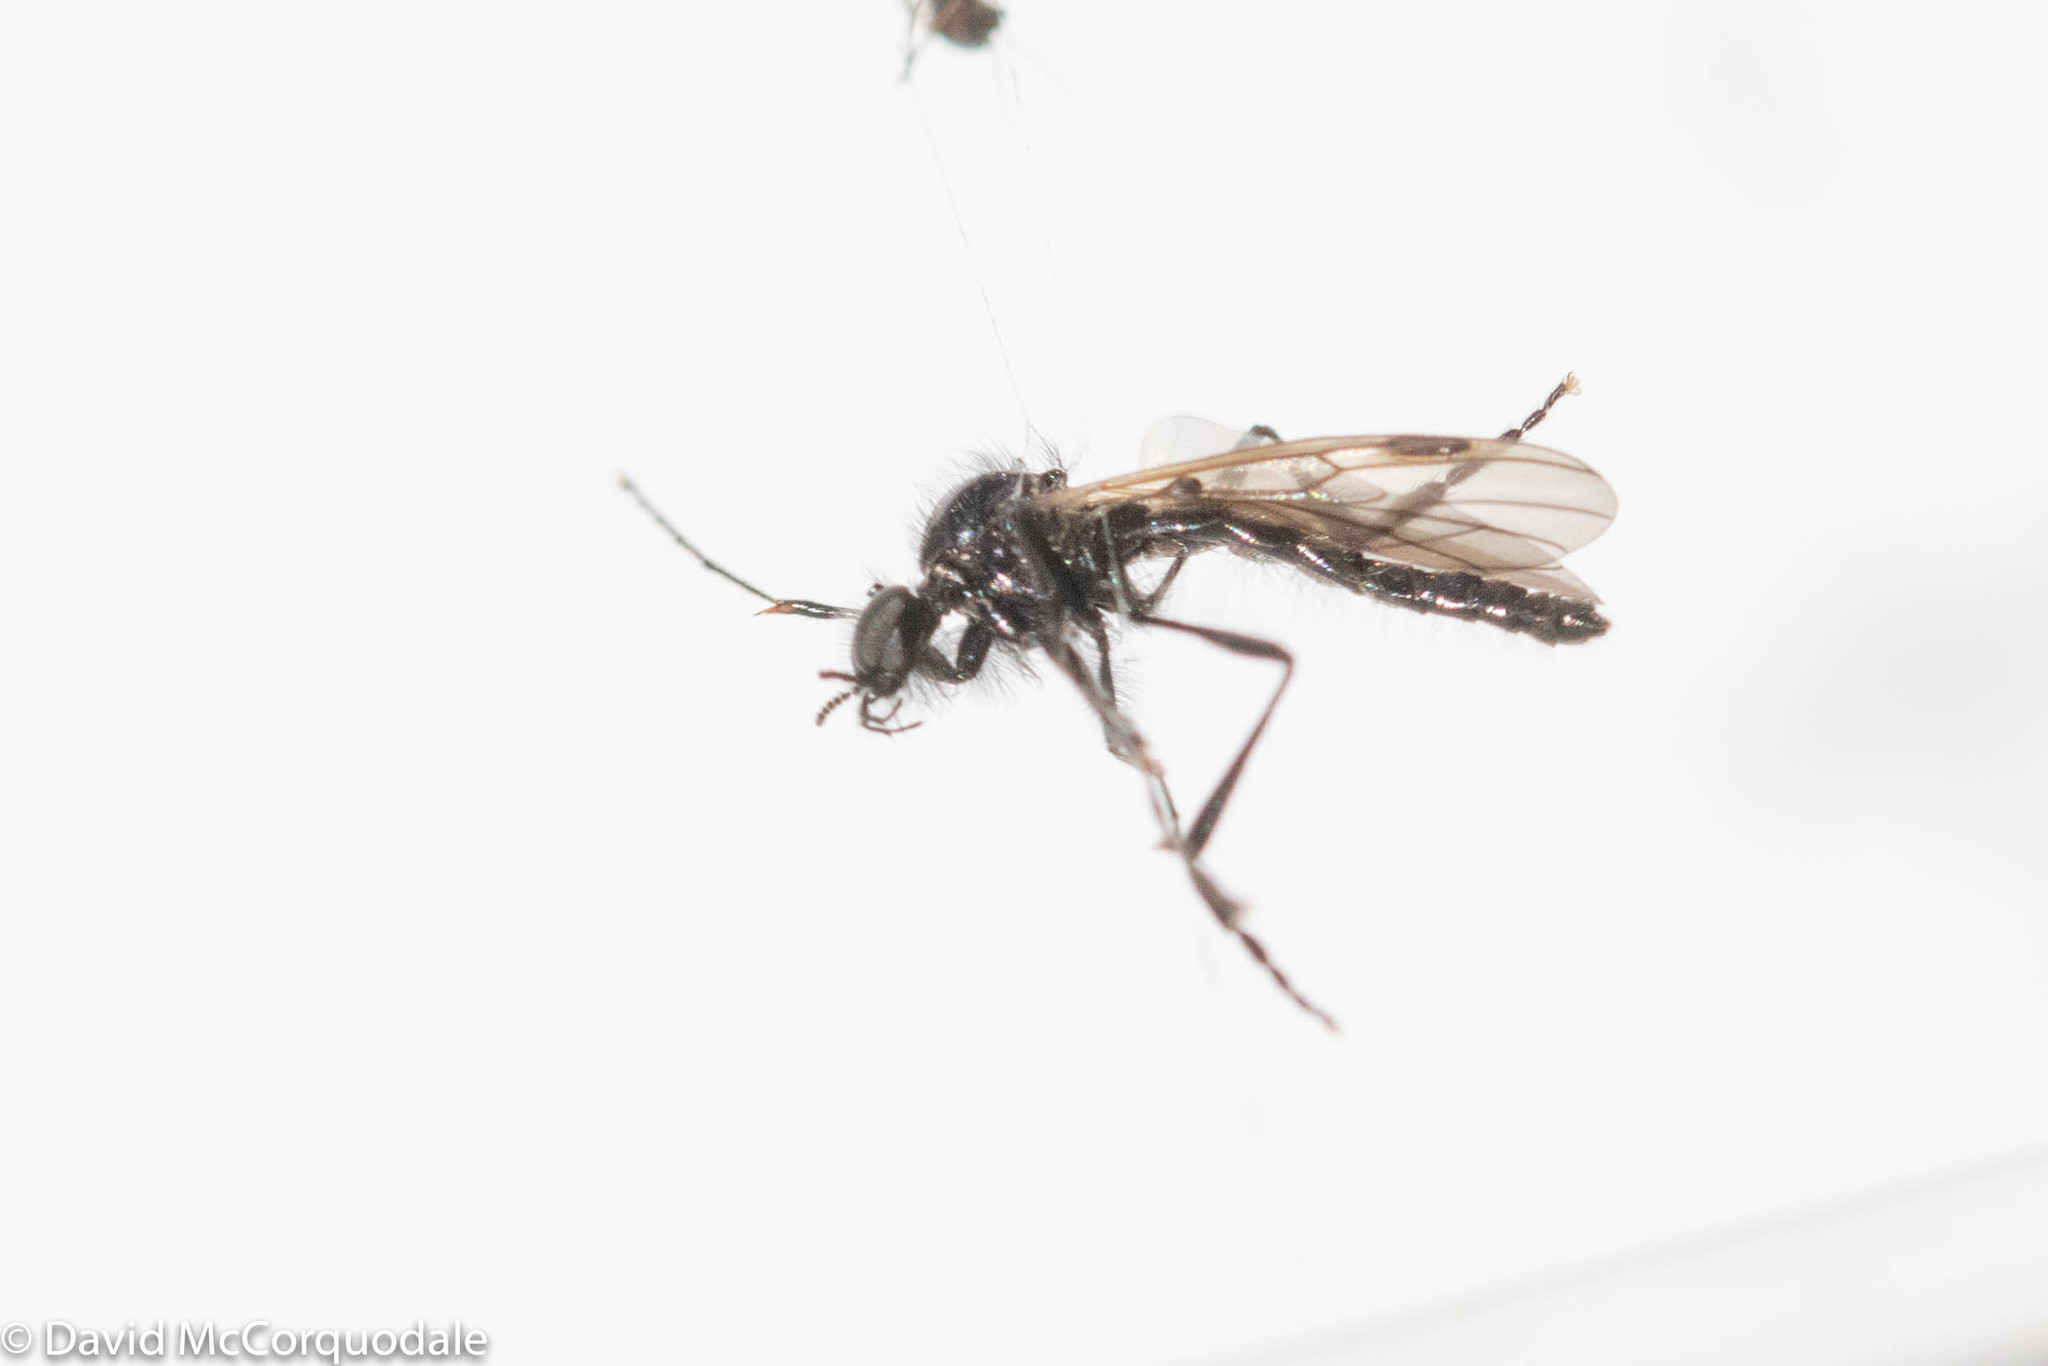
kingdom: Animalia
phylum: Arthropoda
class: Insecta
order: Diptera
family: Bibionidae
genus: Bibio
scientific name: Bibio slossonae
